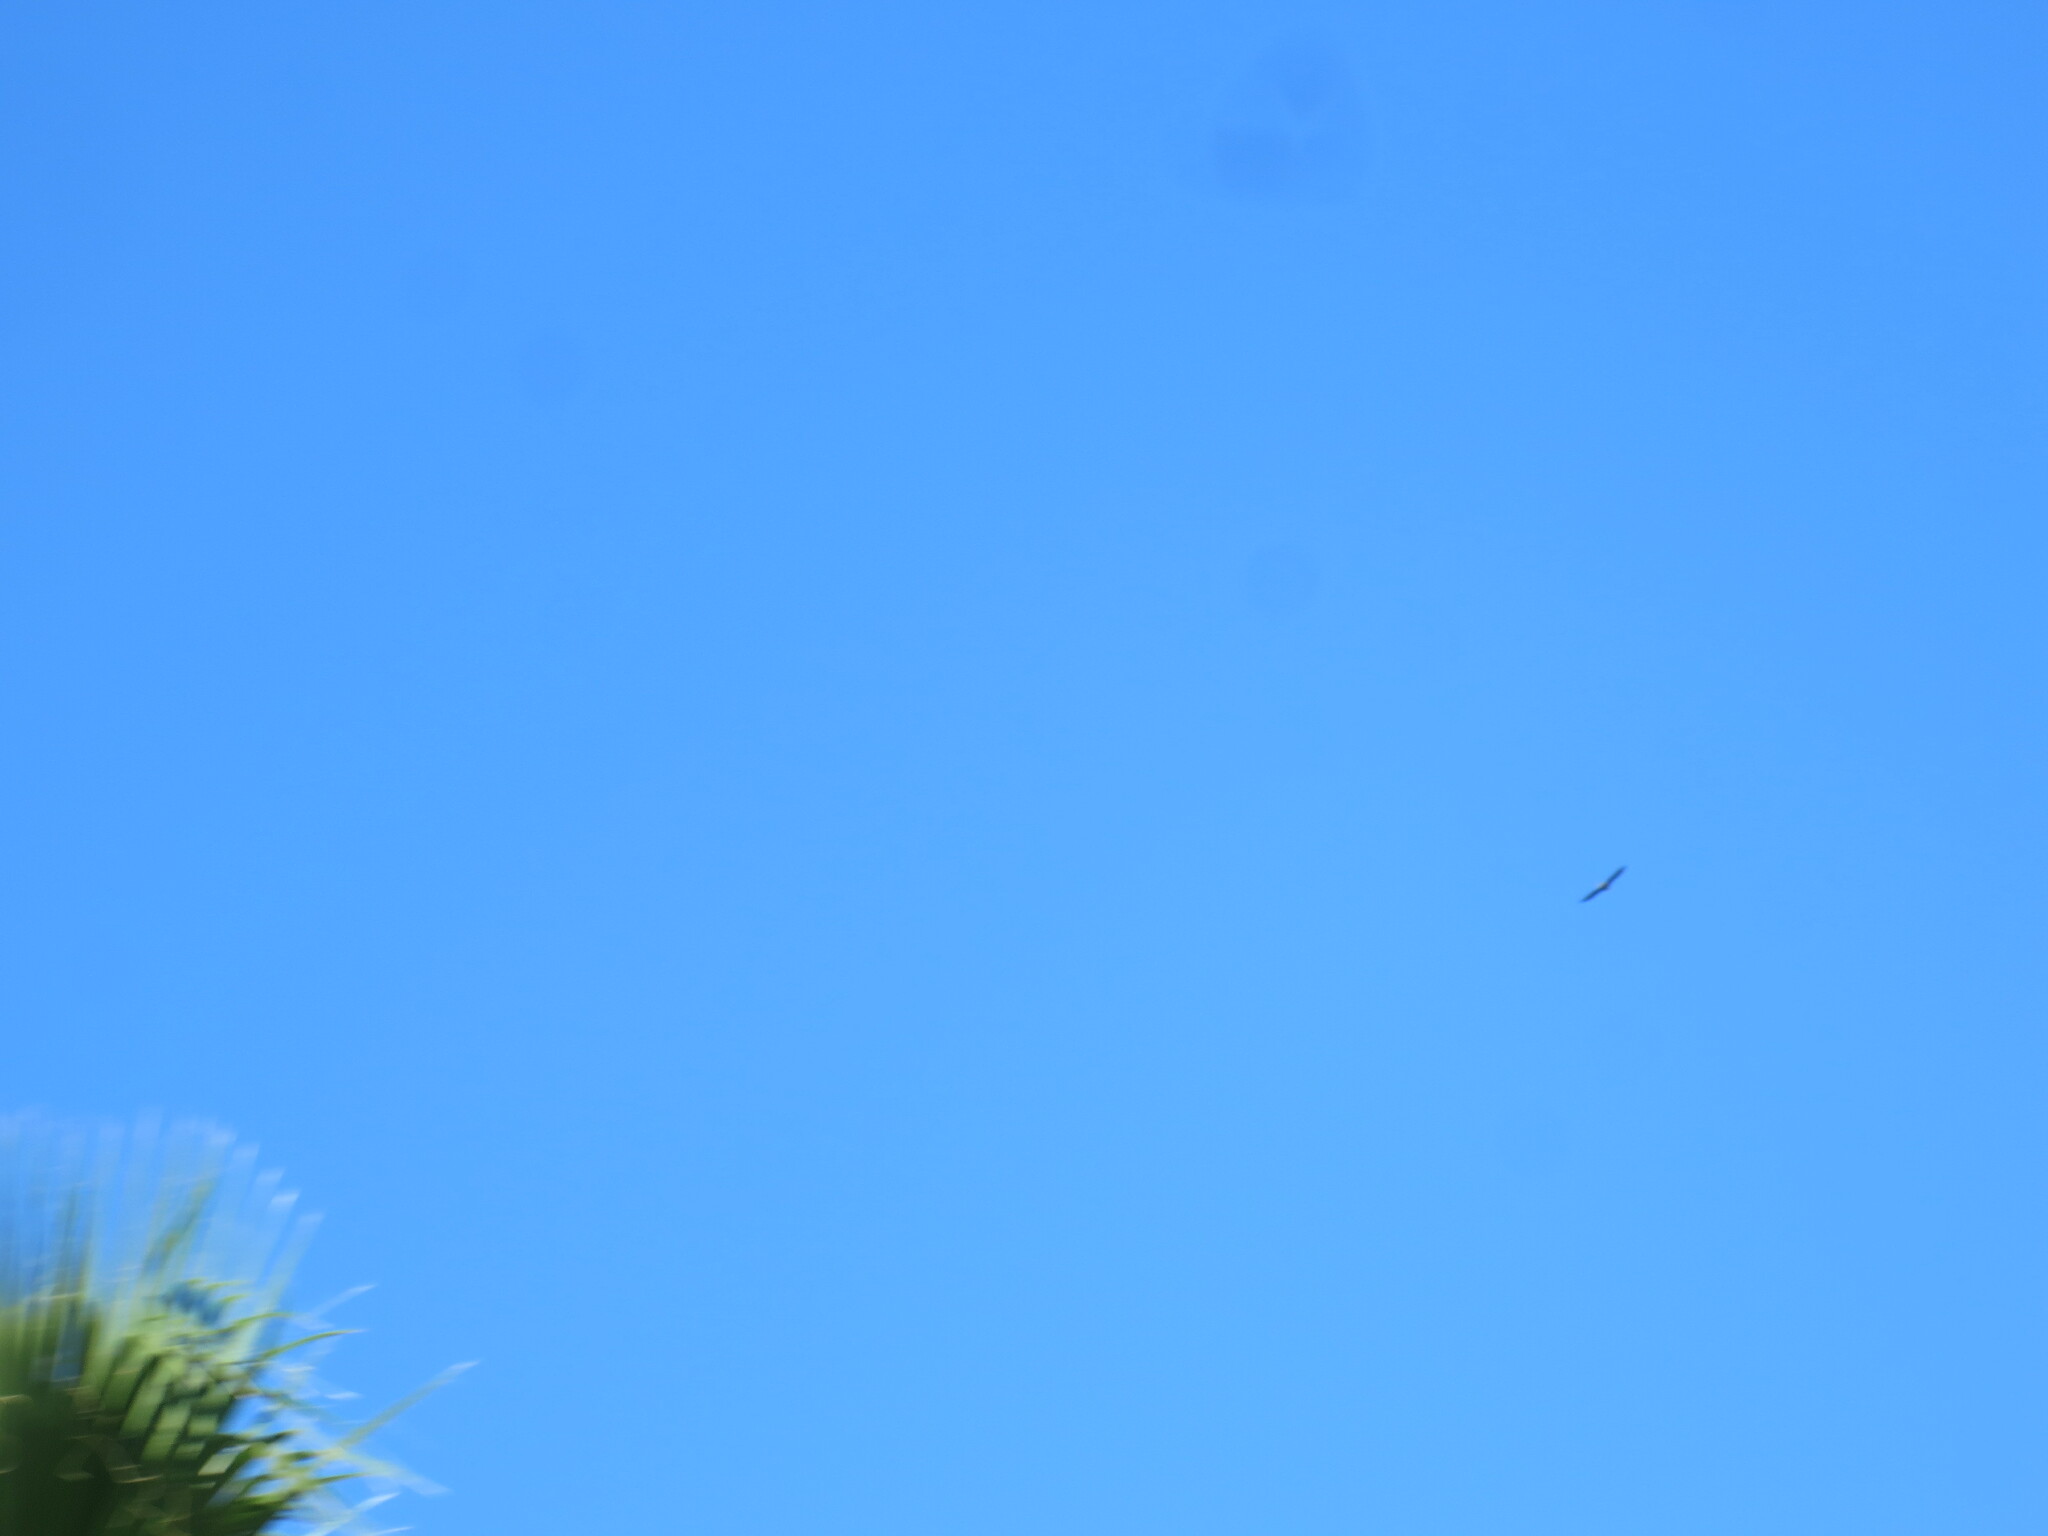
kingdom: Animalia
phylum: Chordata
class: Aves
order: Accipitriformes
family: Accipitridae
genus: Haliaeetus
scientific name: Haliaeetus leucocephalus
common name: Bald eagle
